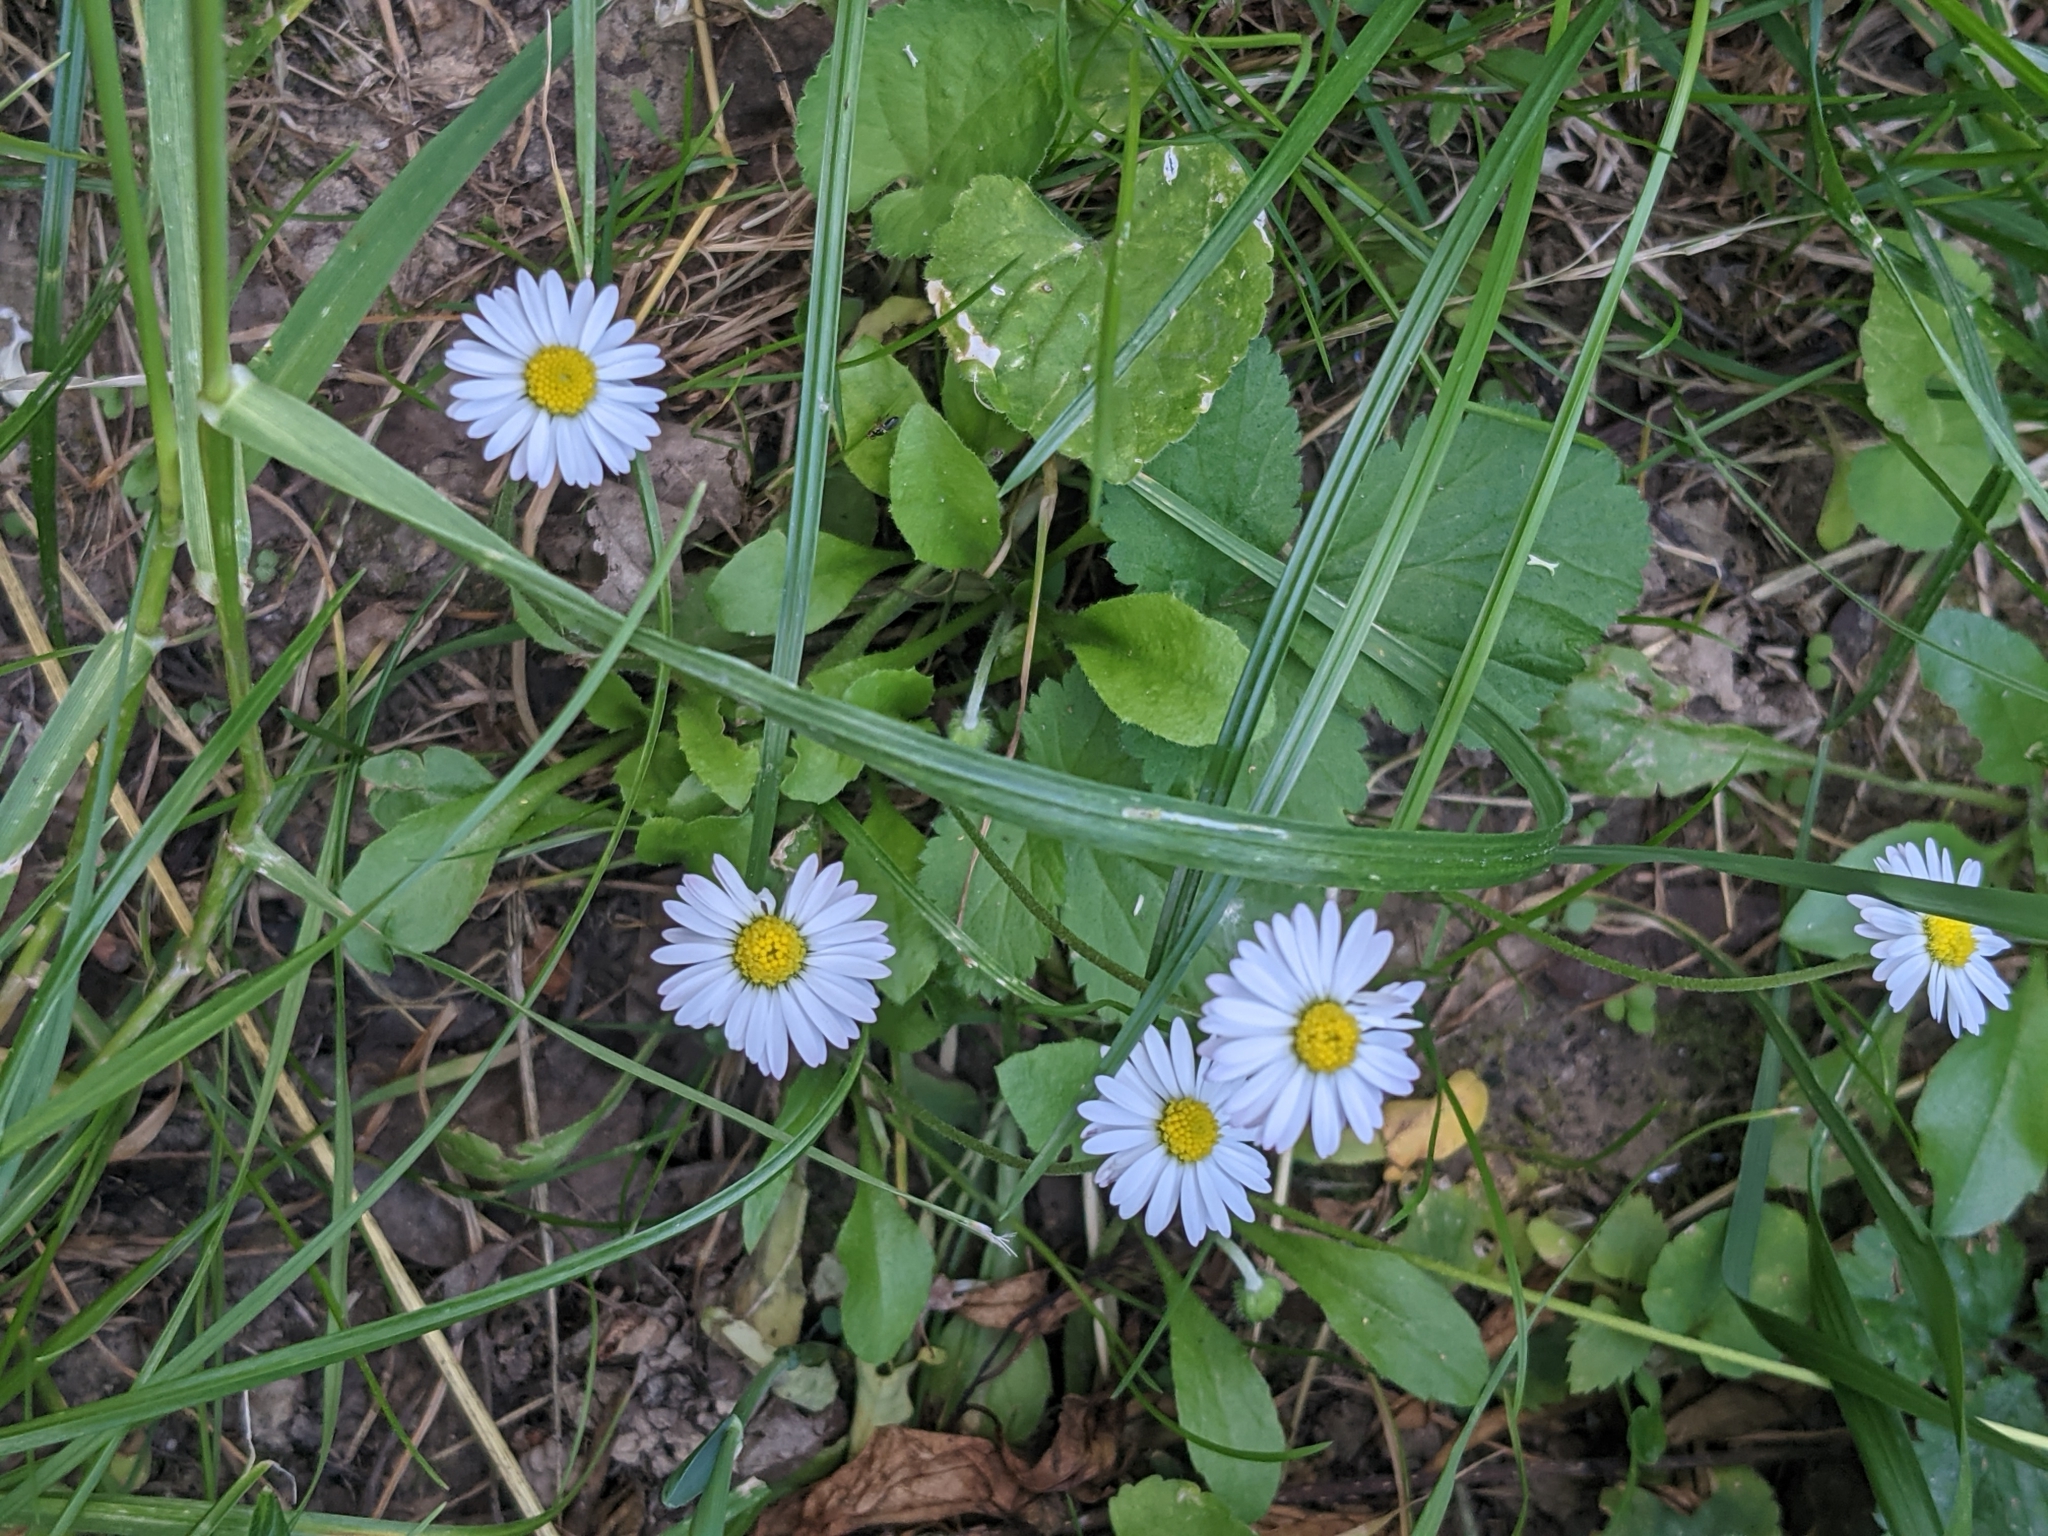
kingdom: Plantae
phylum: Tracheophyta
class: Magnoliopsida
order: Asterales
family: Asteraceae
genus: Bellis
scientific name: Bellis perennis
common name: Lawndaisy
